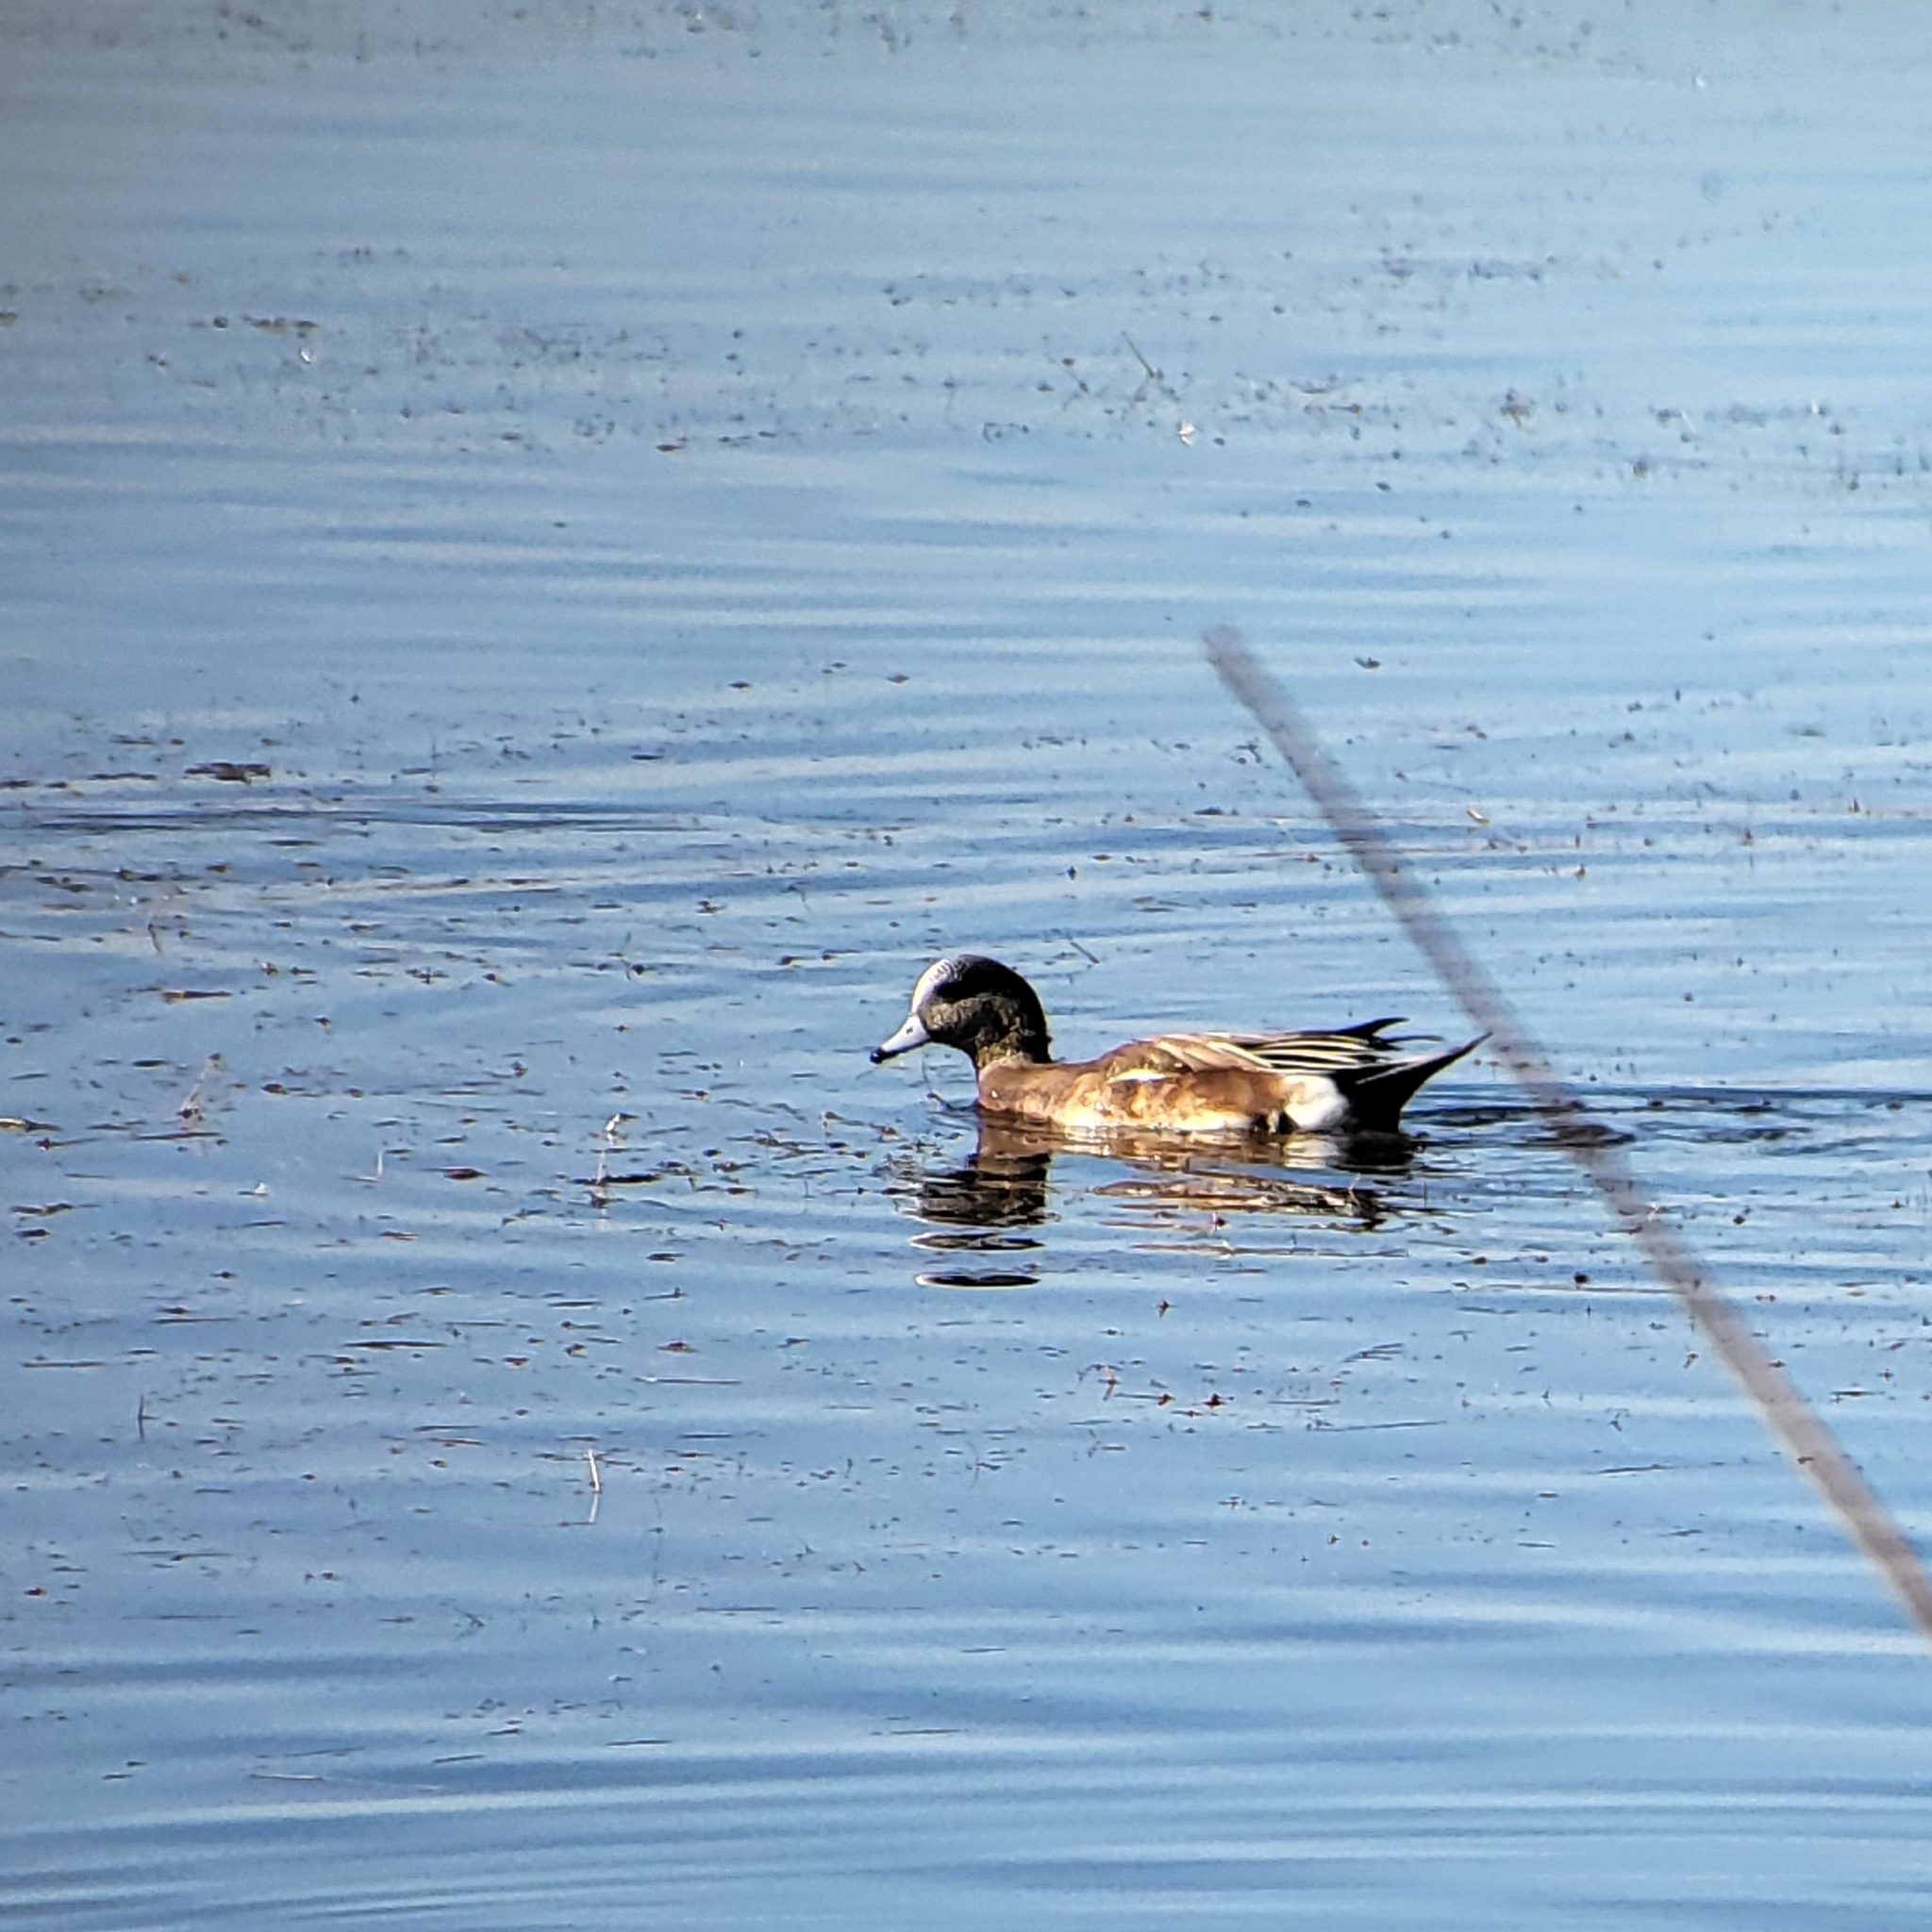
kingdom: Animalia
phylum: Chordata
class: Aves
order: Anseriformes
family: Anatidae
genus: Mareca
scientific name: Mareca americana
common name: American wigeon
